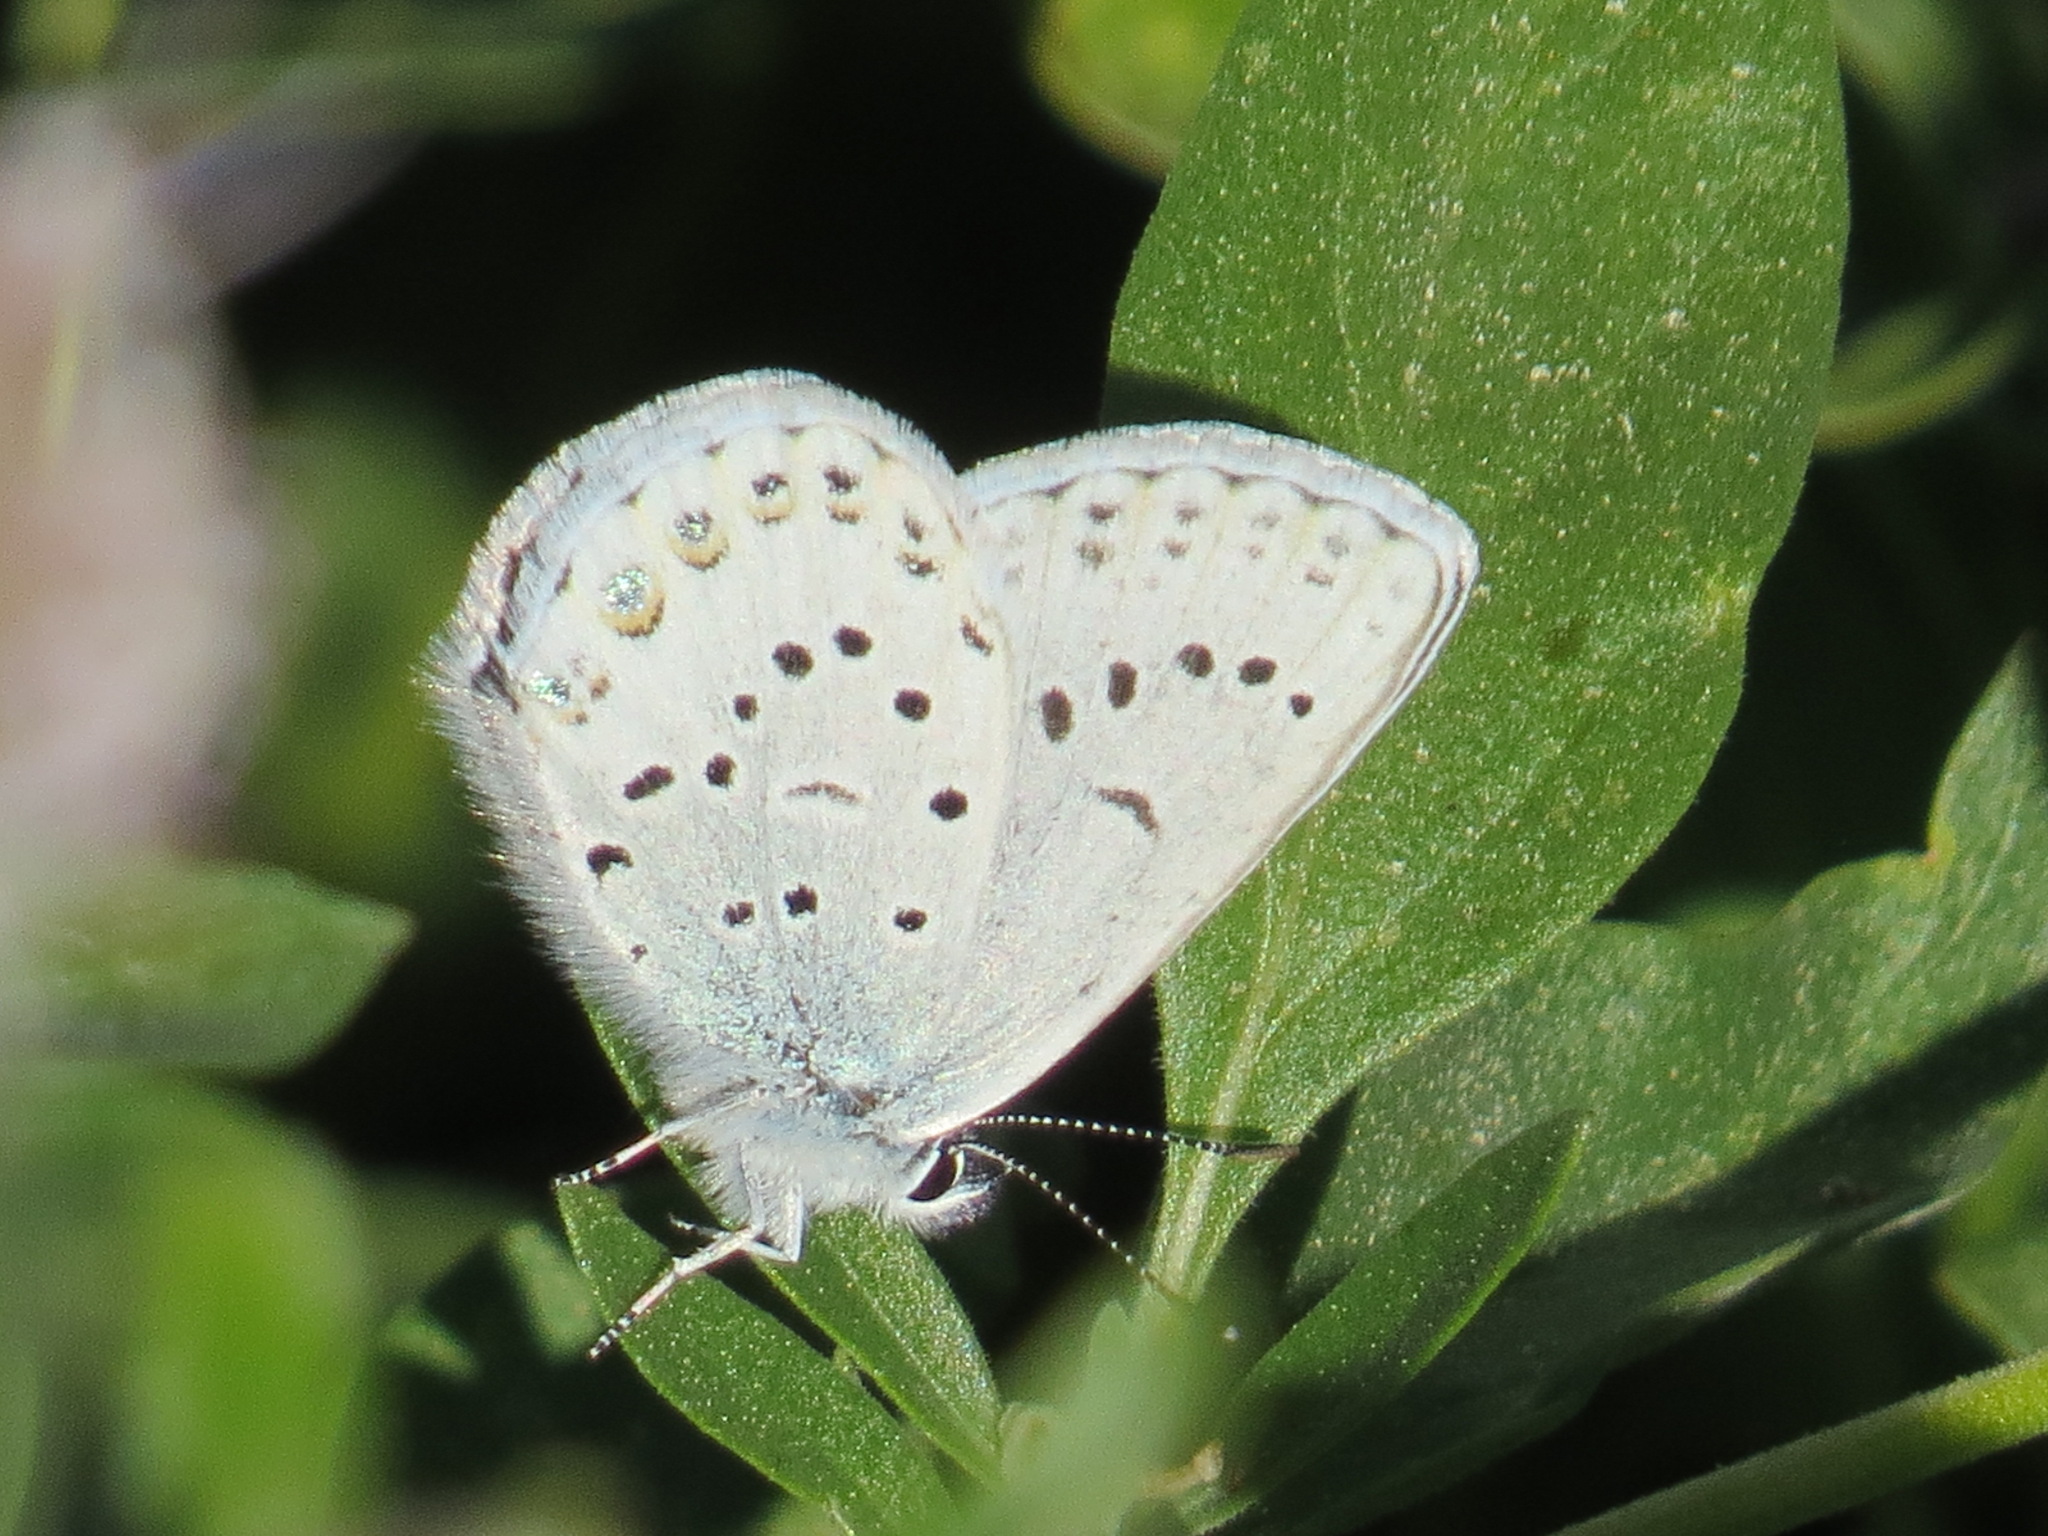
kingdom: Animalia
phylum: Arthropoda
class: Insecta
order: Lepidoptera
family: Lycaenidae
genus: Lycaeides
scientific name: Lycaeides anna
